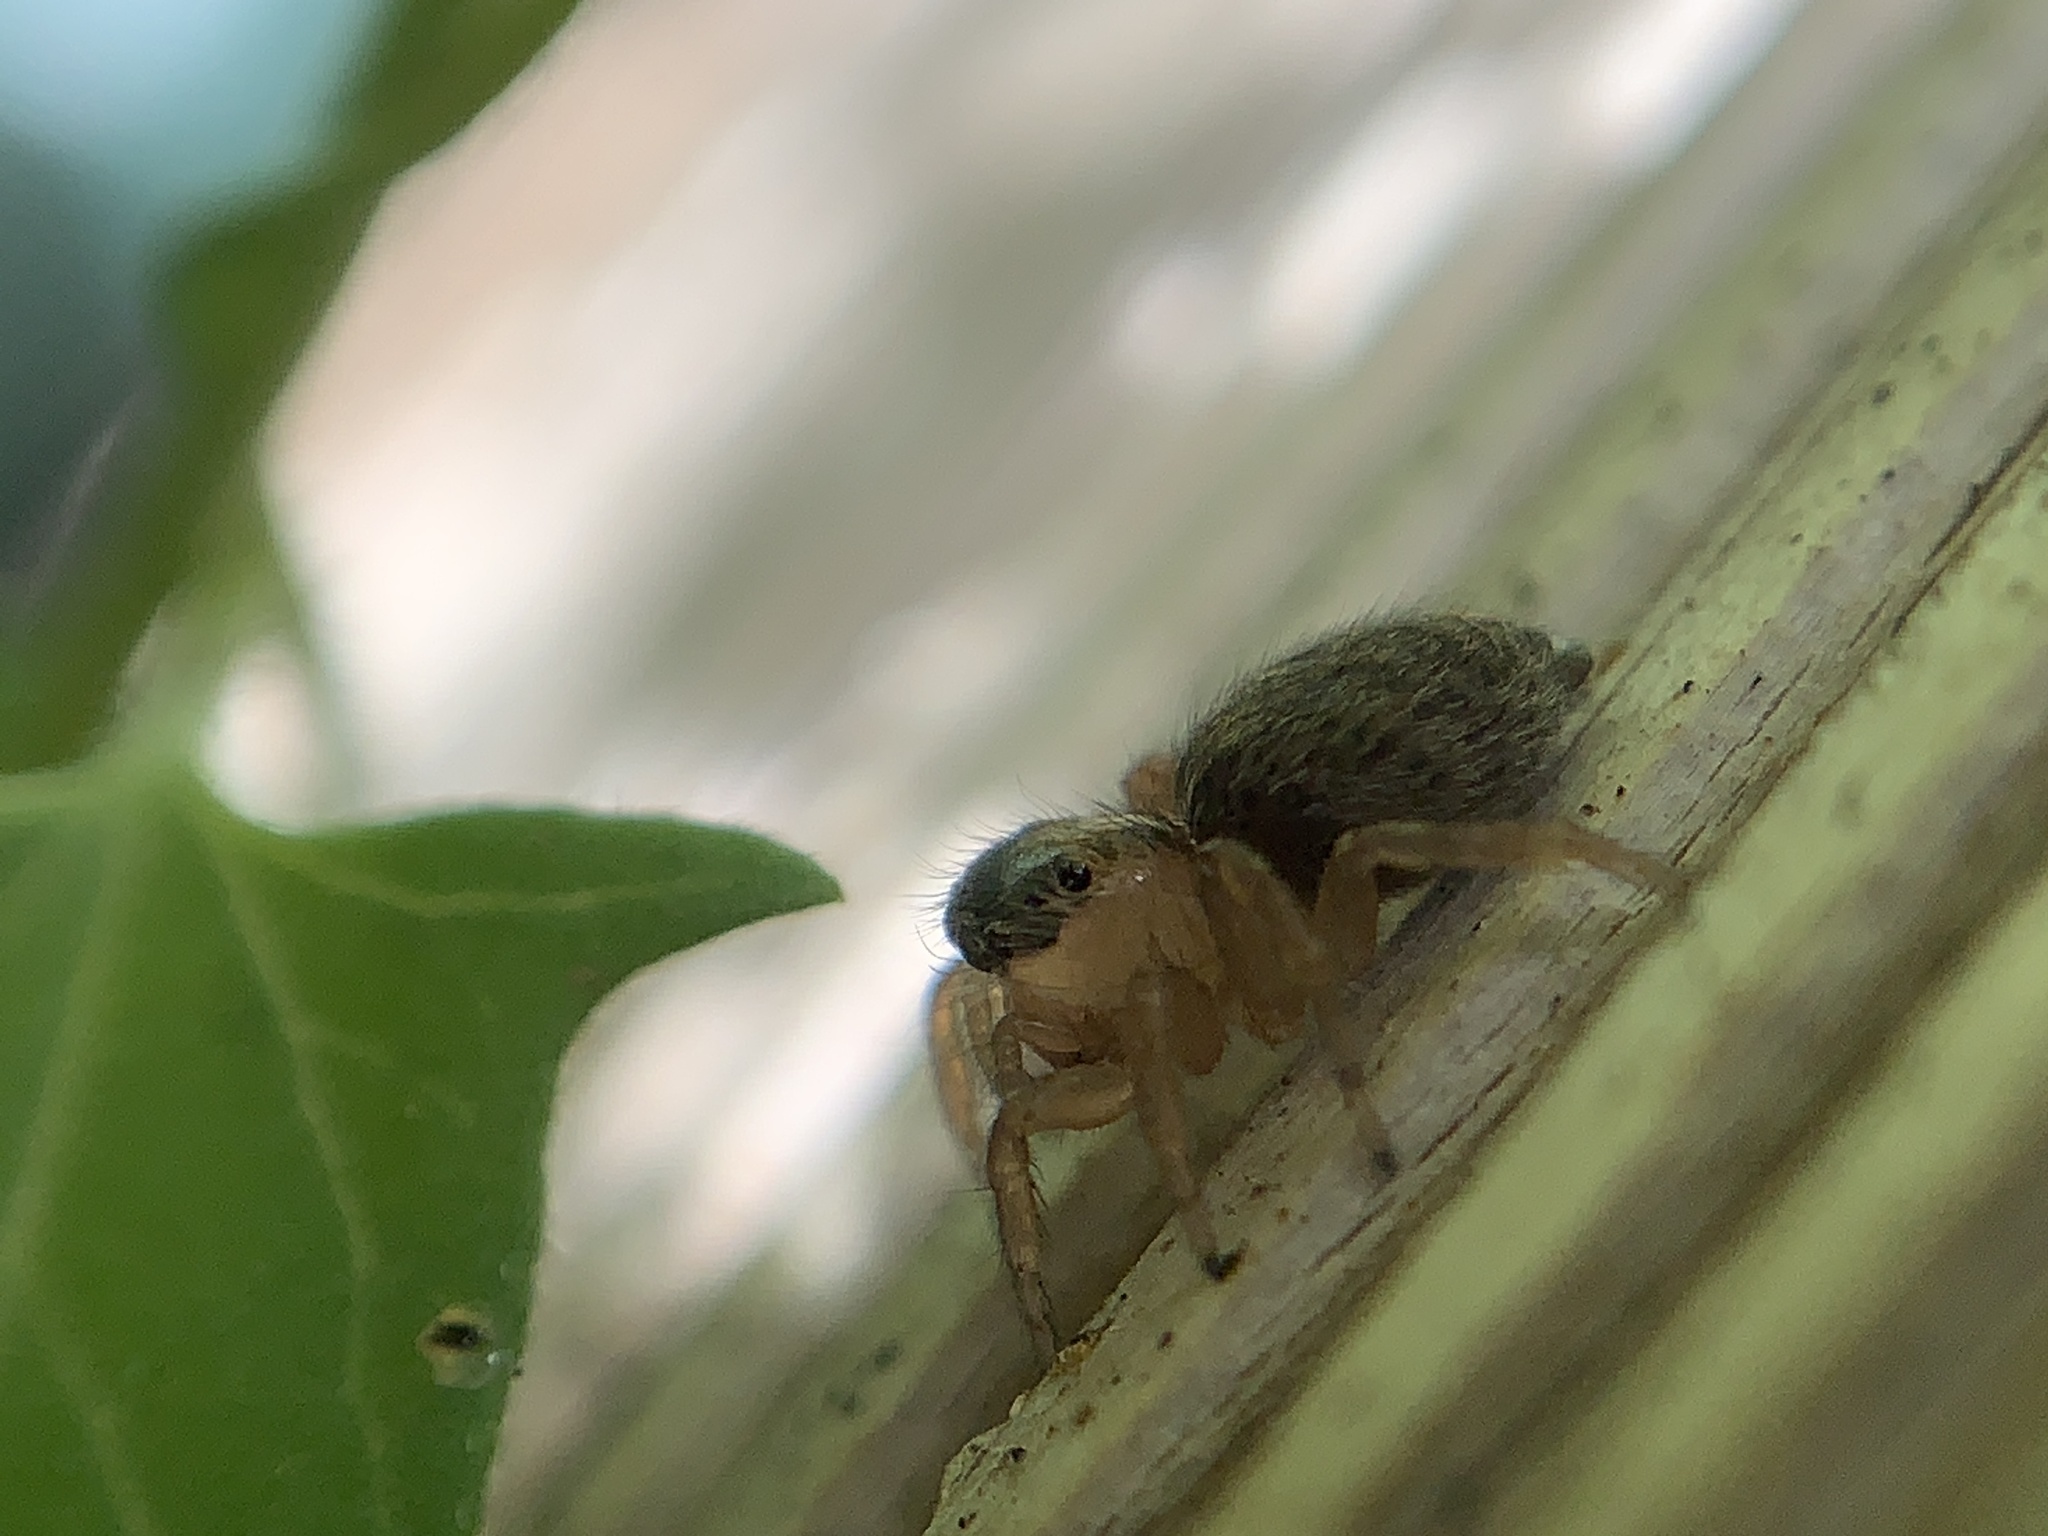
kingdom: Animalia
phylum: Arthropoda
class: Arachnida
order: Araneae
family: Salticidae
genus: Saitis
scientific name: Saitis barbipes
